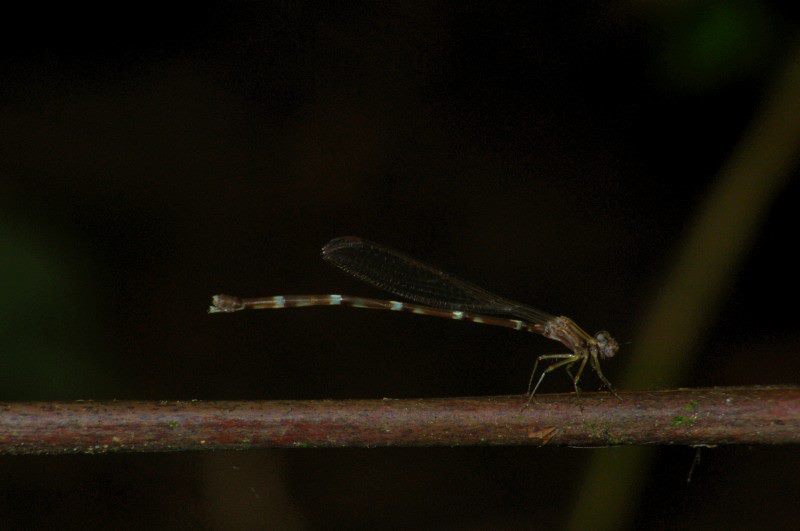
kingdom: Animalia
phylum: Arthropoda
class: Insecta
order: Odonata
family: Platystictidae
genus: Drepanosticta
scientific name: Drepanosticta carmichaeli
